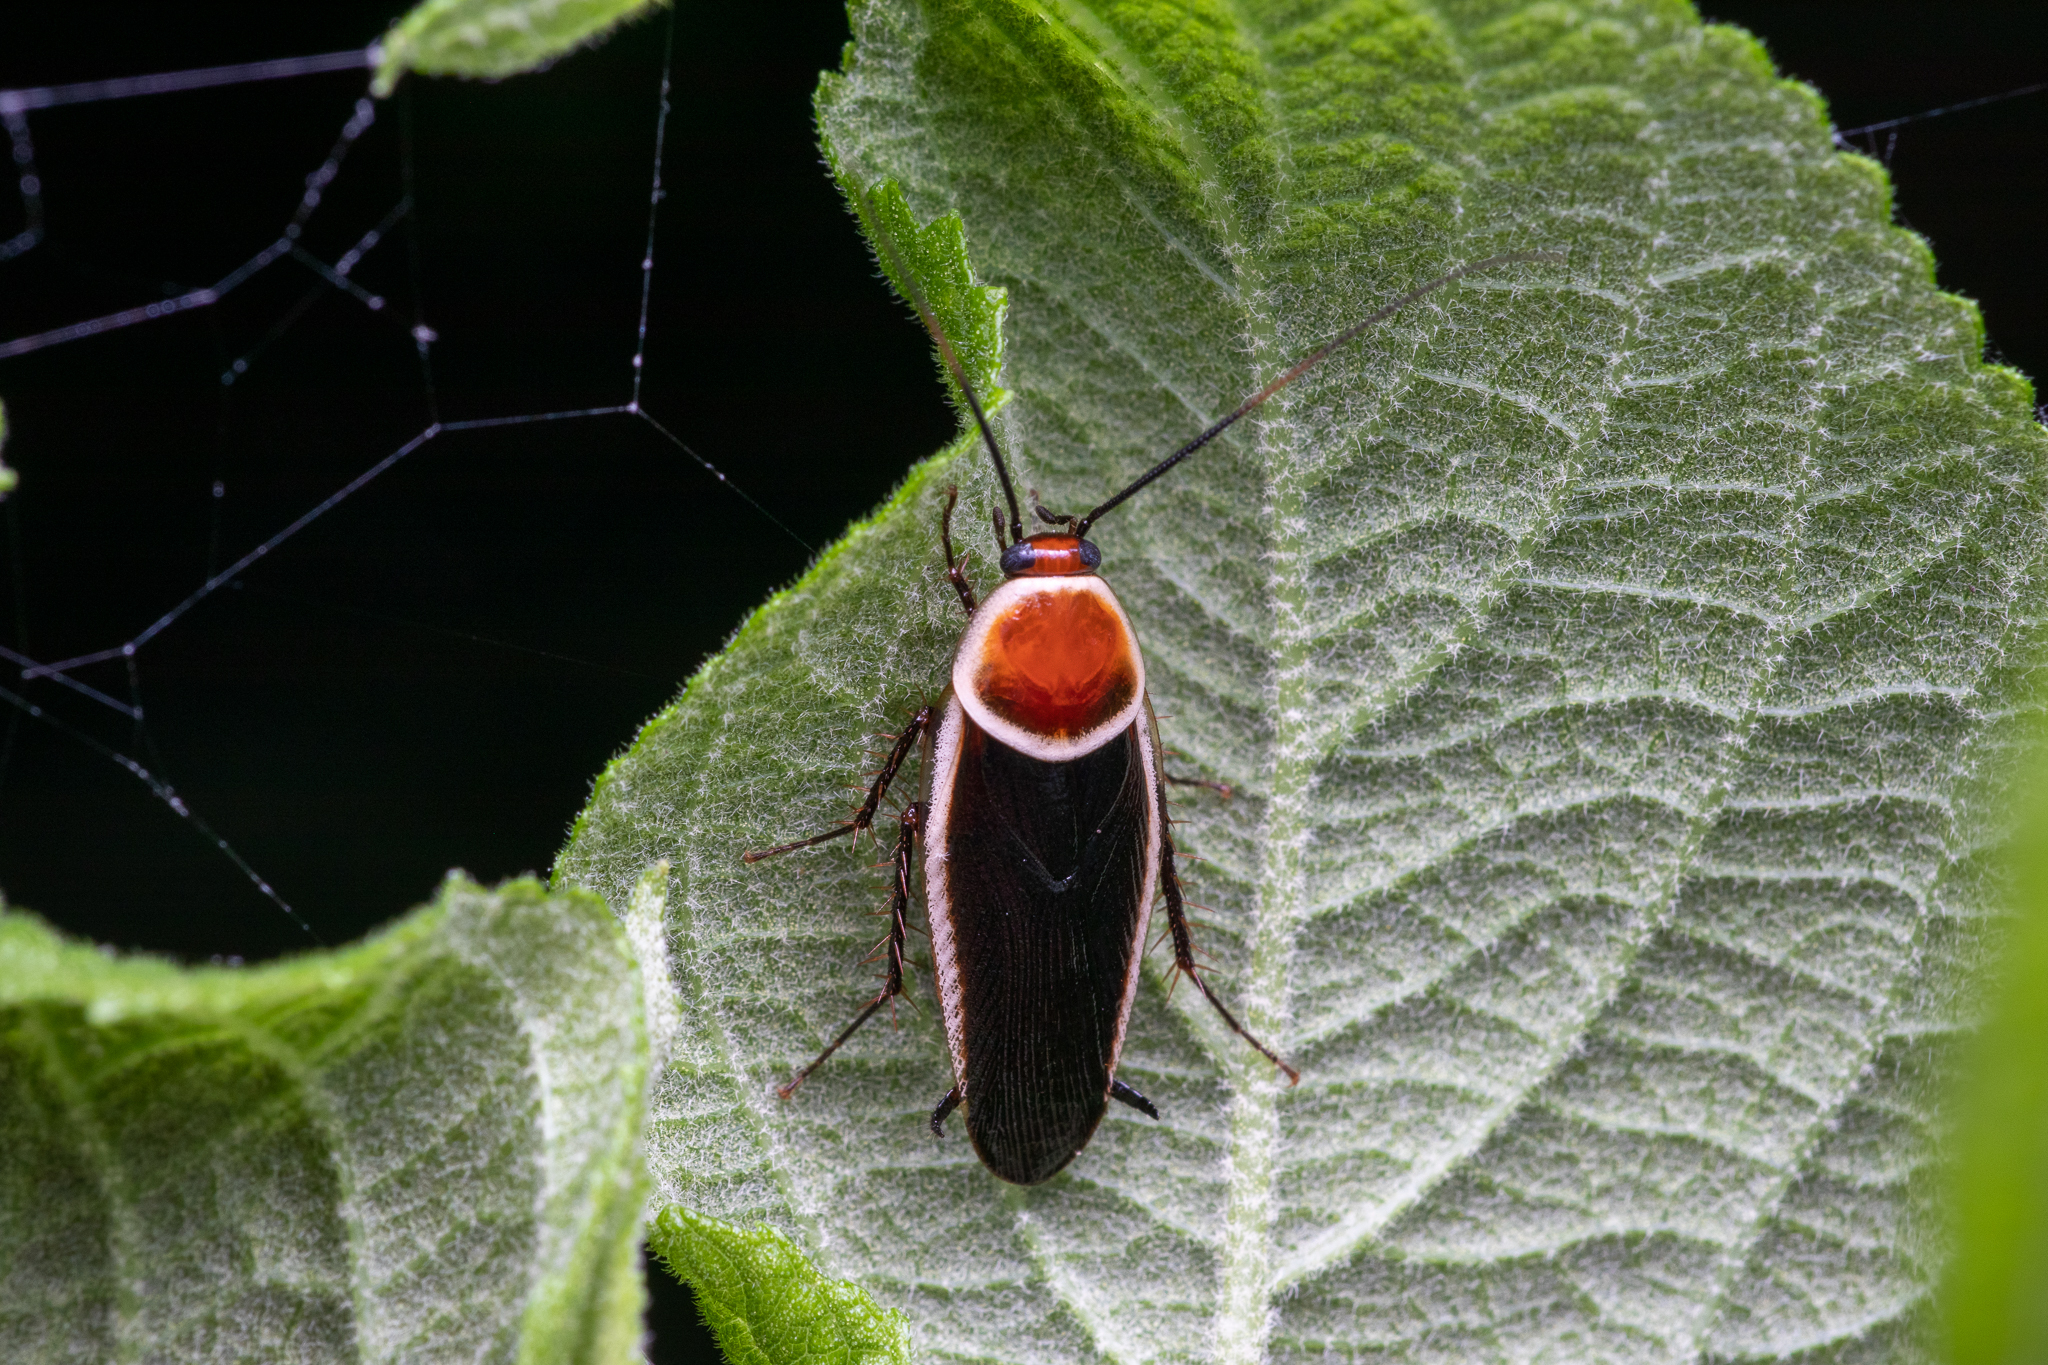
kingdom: Animalia
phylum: Arthropoda
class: Insecta
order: Blattodea
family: Ectobiidae
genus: Pseudomops
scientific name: Pseudomops septentrionalis
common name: Pale-bordered field cockroach
